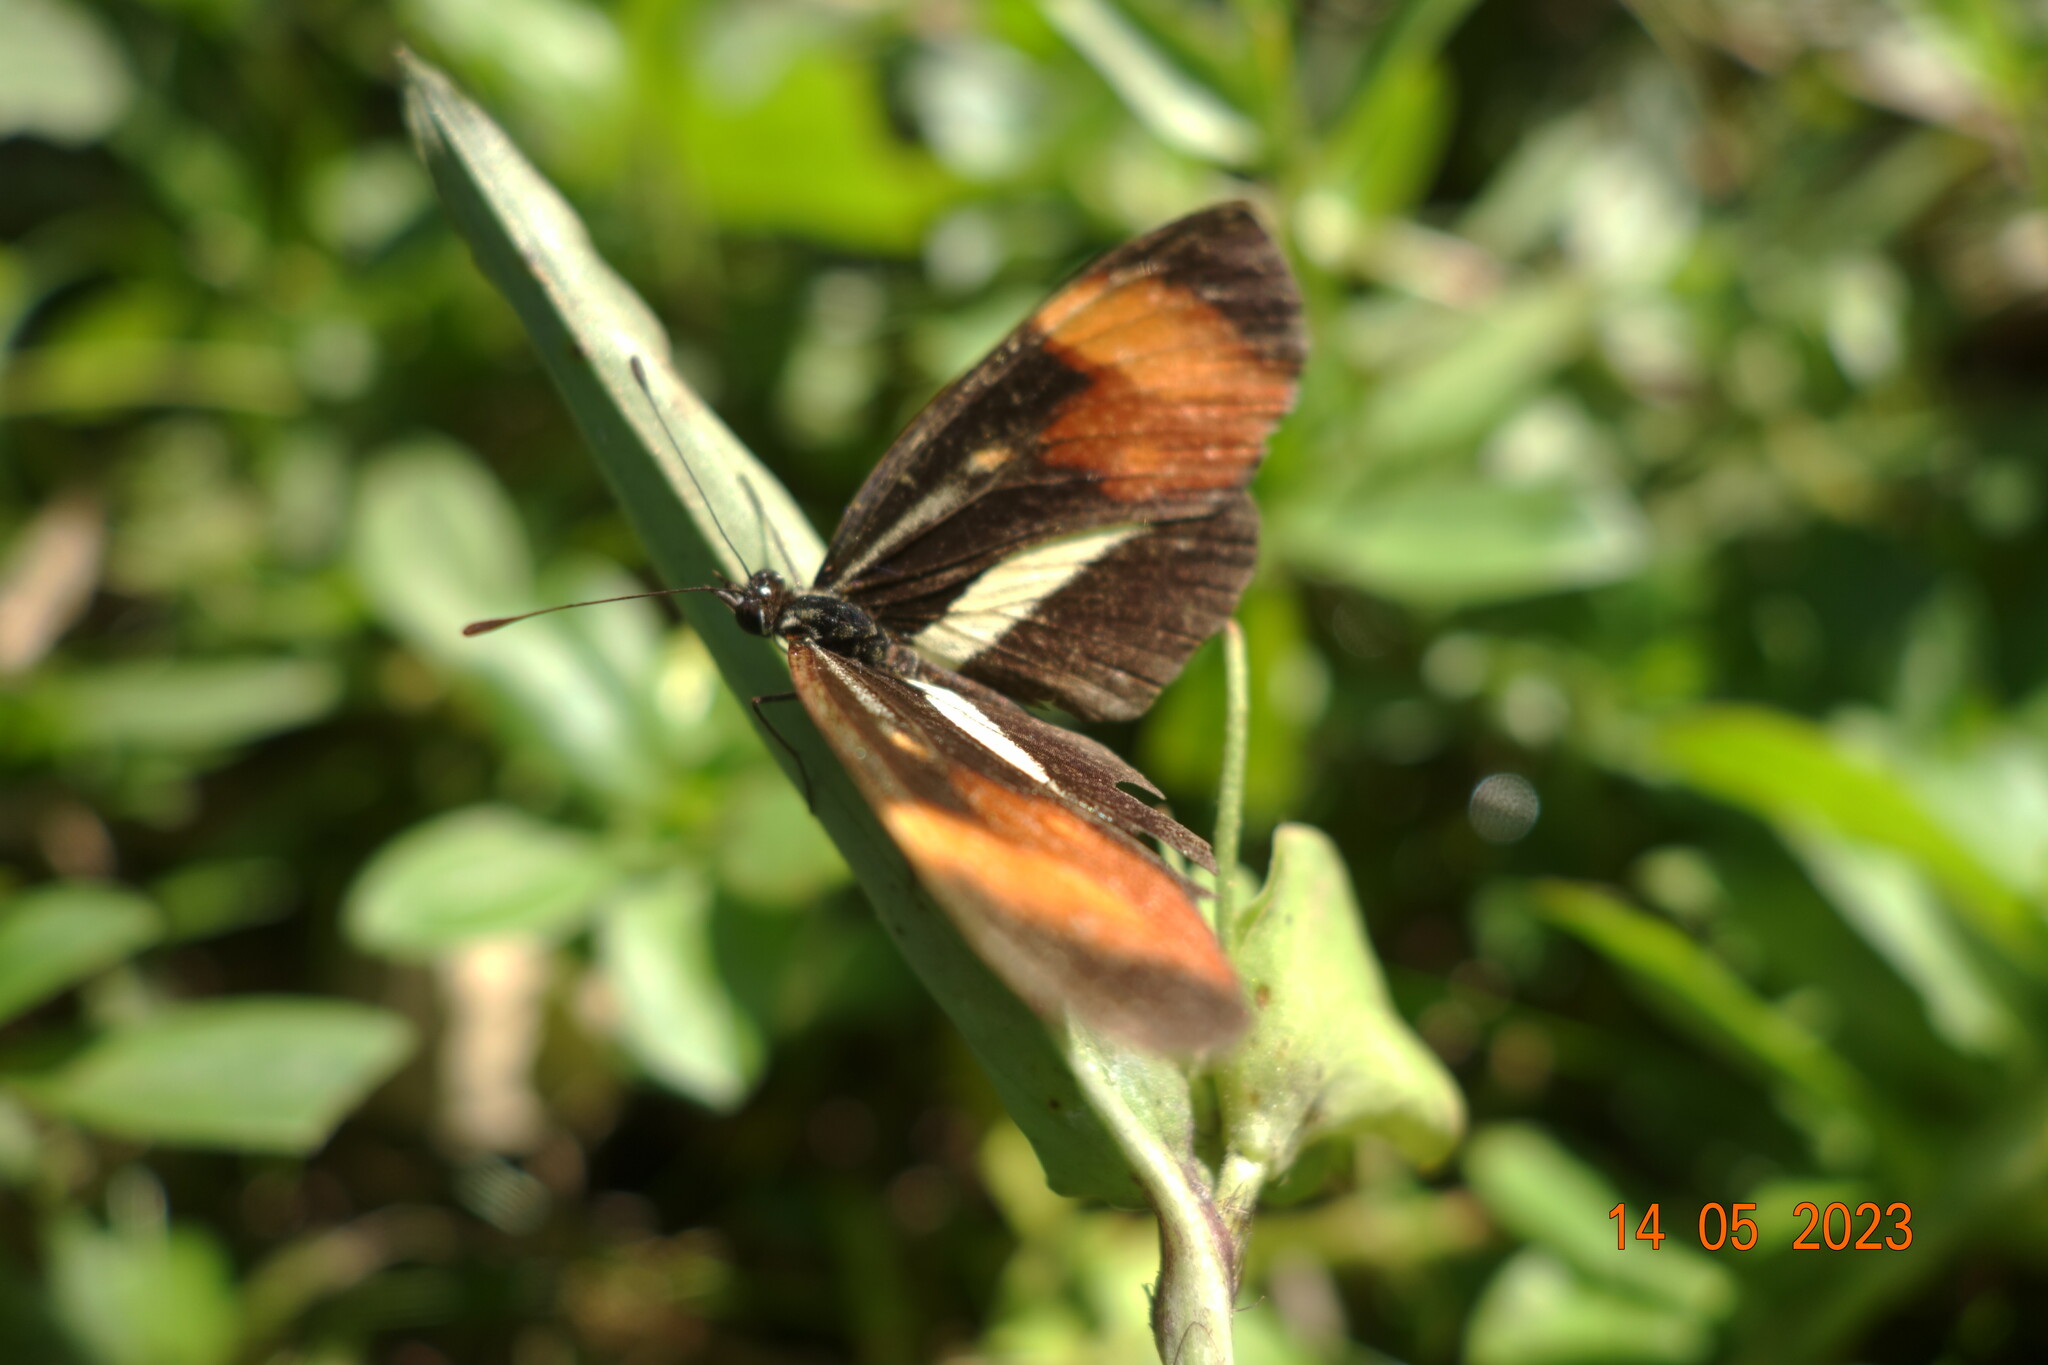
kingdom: Animalia
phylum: Arthropoda
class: Insecta
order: Lepidoptera
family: Nymphalidae
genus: Eresia
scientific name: Eresia lansdorfi
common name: Lansdorf's crescent
